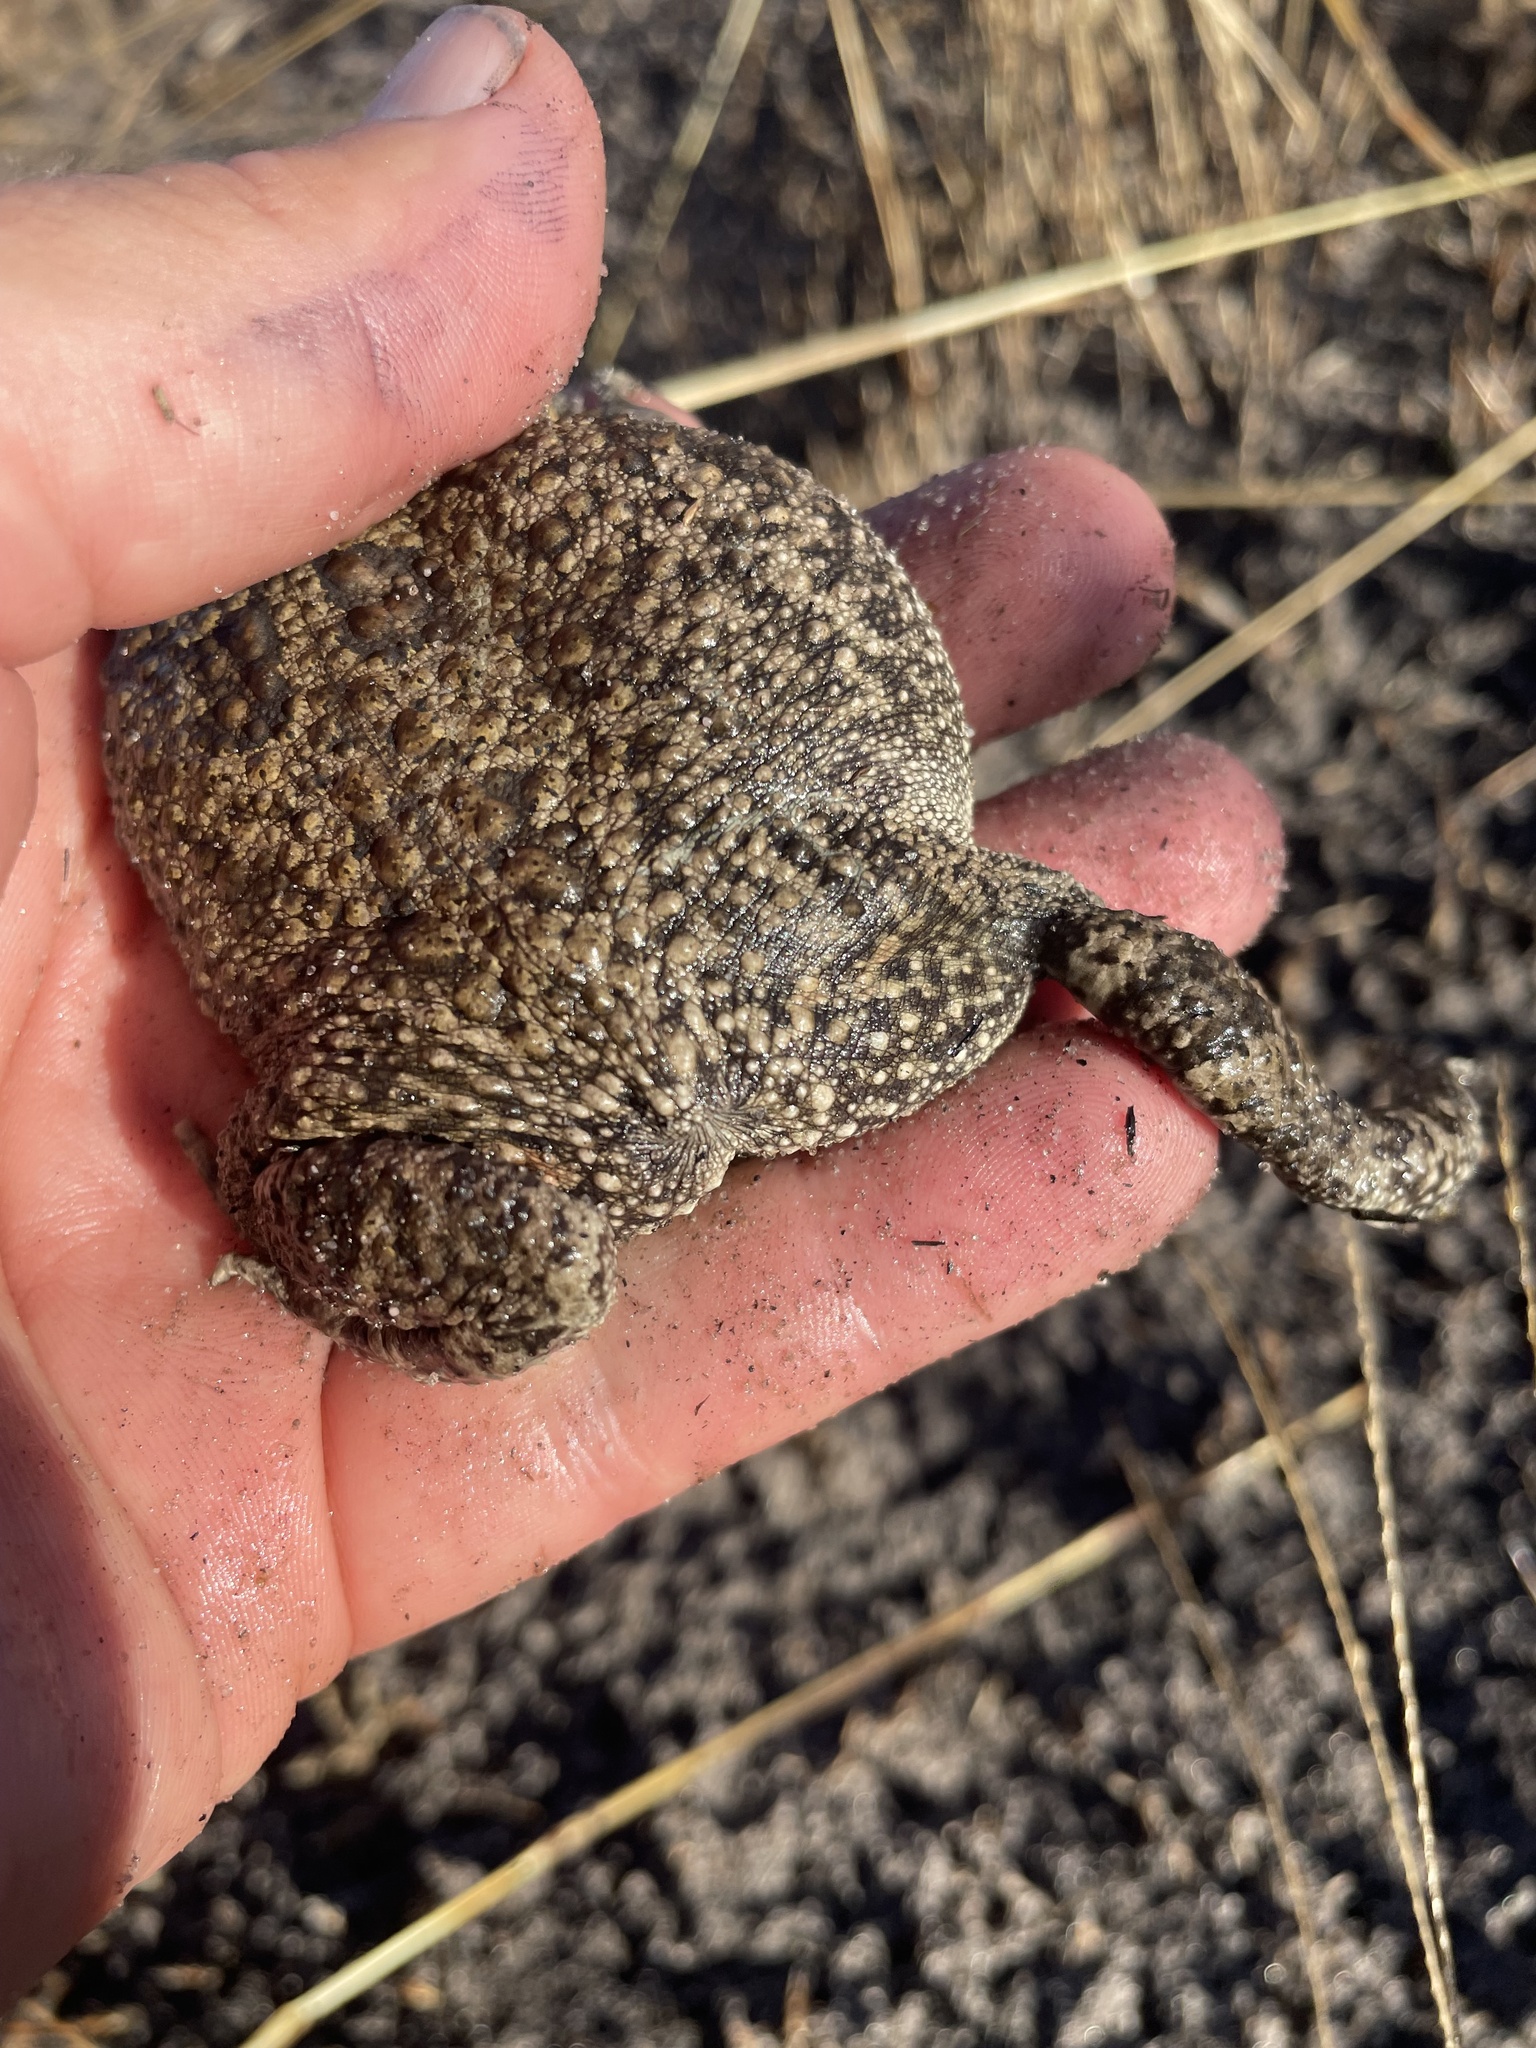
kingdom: Animalia
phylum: Chordata
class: Amphibia
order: Anura
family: Bufonidae
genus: Sclerophrys
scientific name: Sclerophrys gutturalis
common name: African common toad
